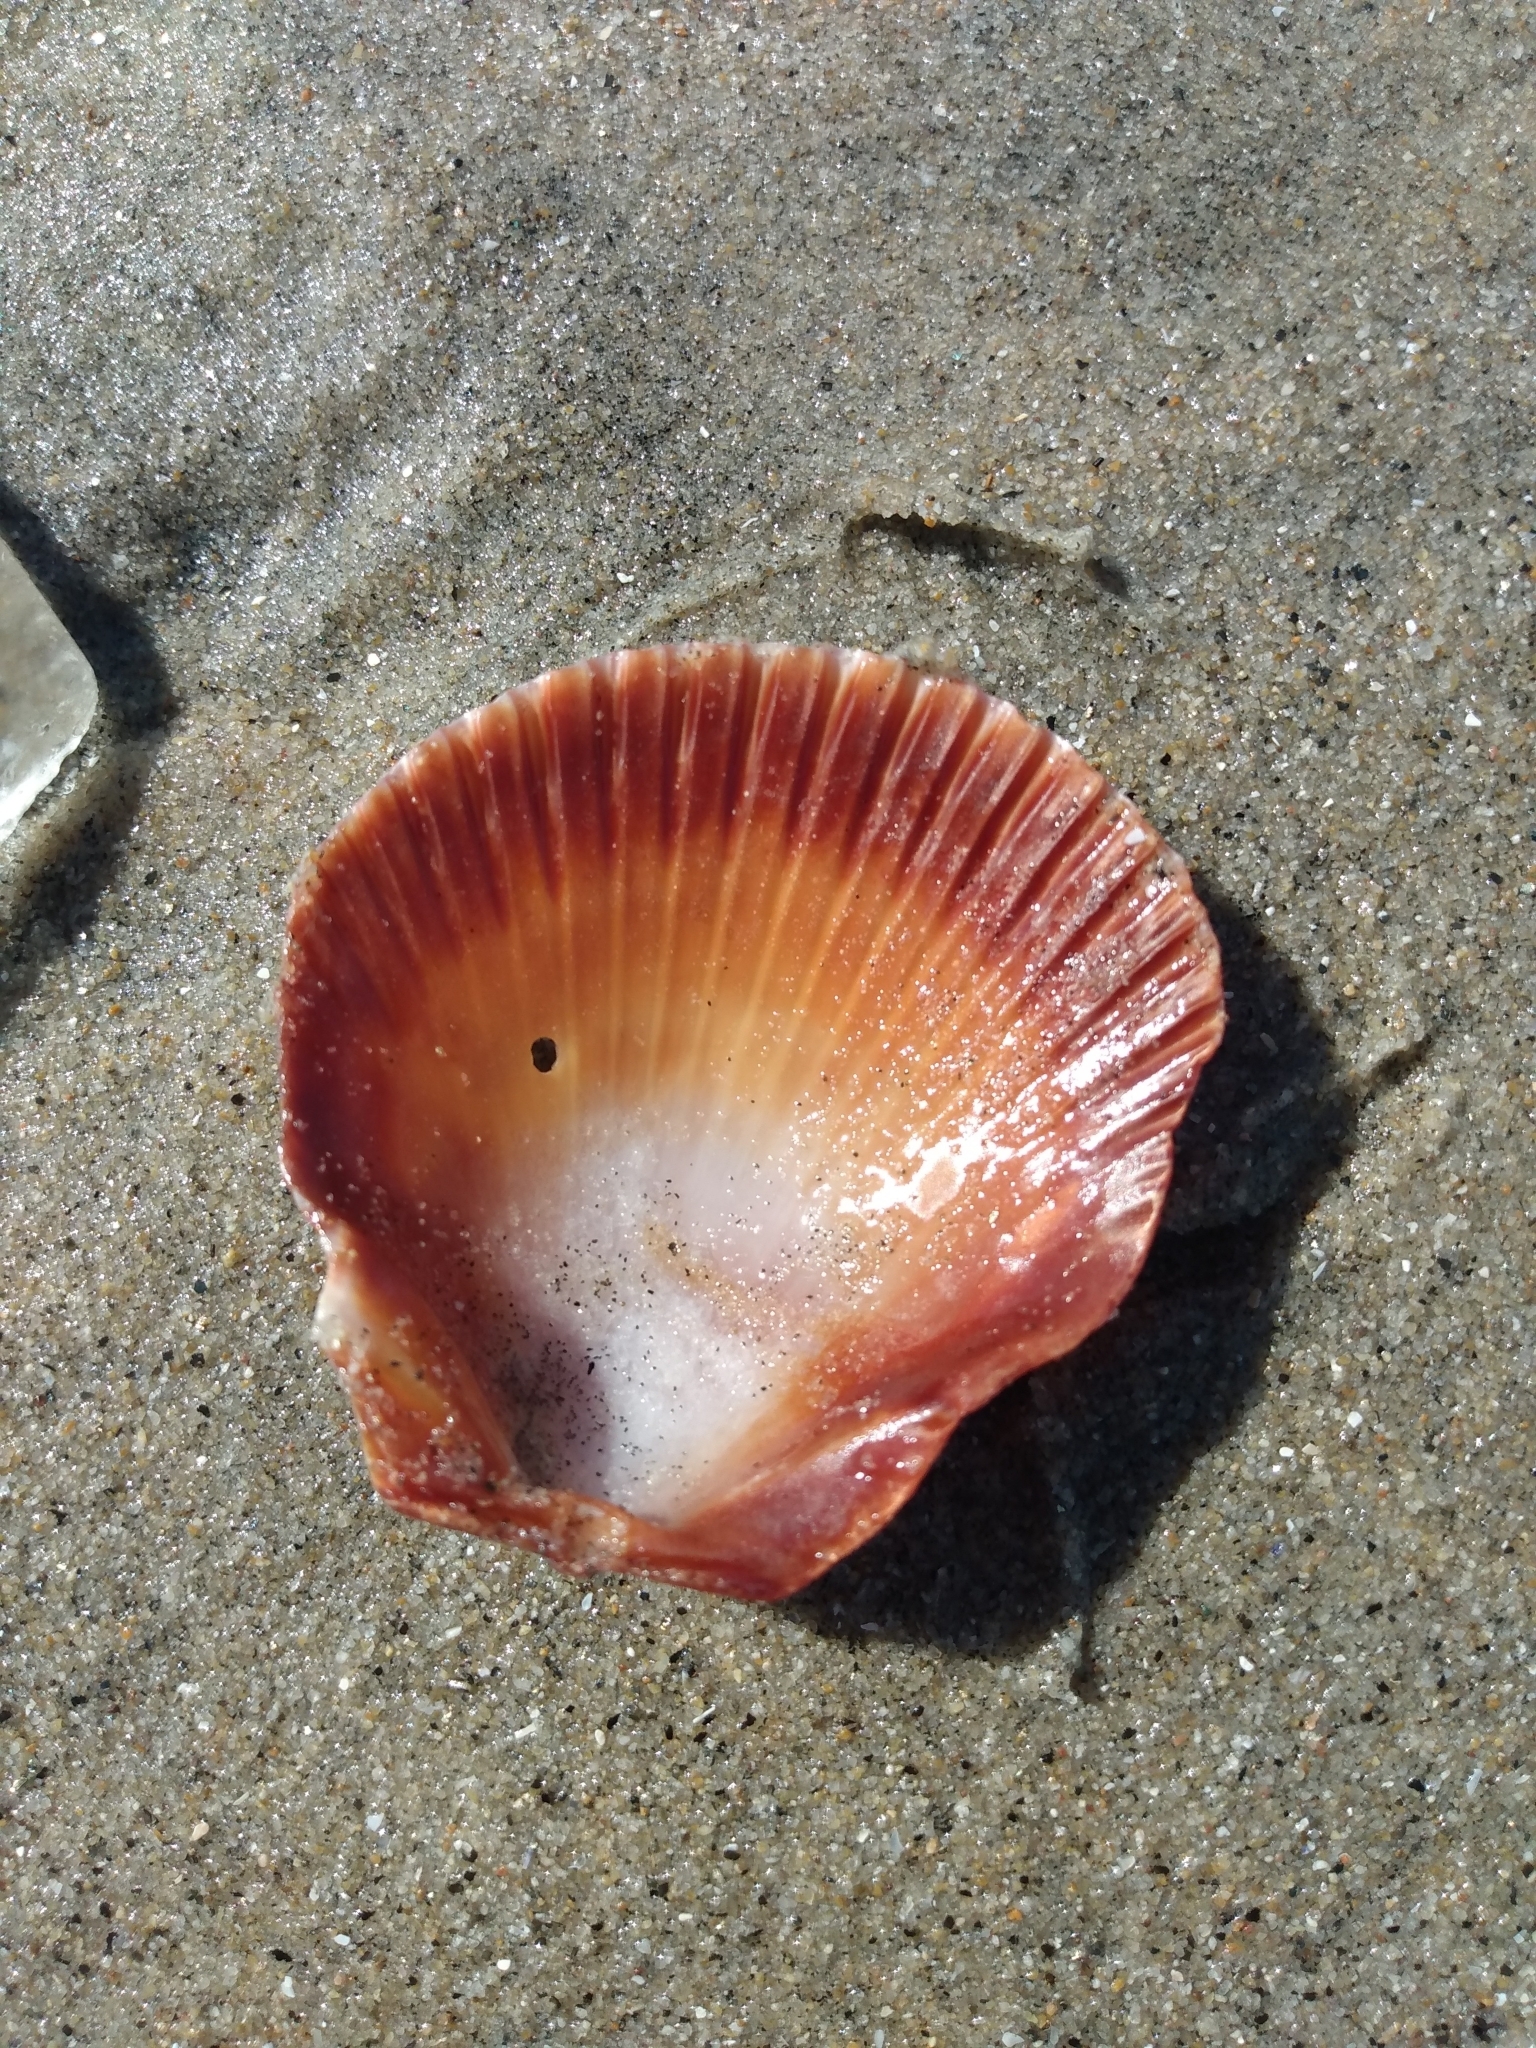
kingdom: Animalia
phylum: Mollusca
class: Bivalvia
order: Pectinida
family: Pectinidae
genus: Argopecten
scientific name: Argopecten ventricosus
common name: Catarina scallop
